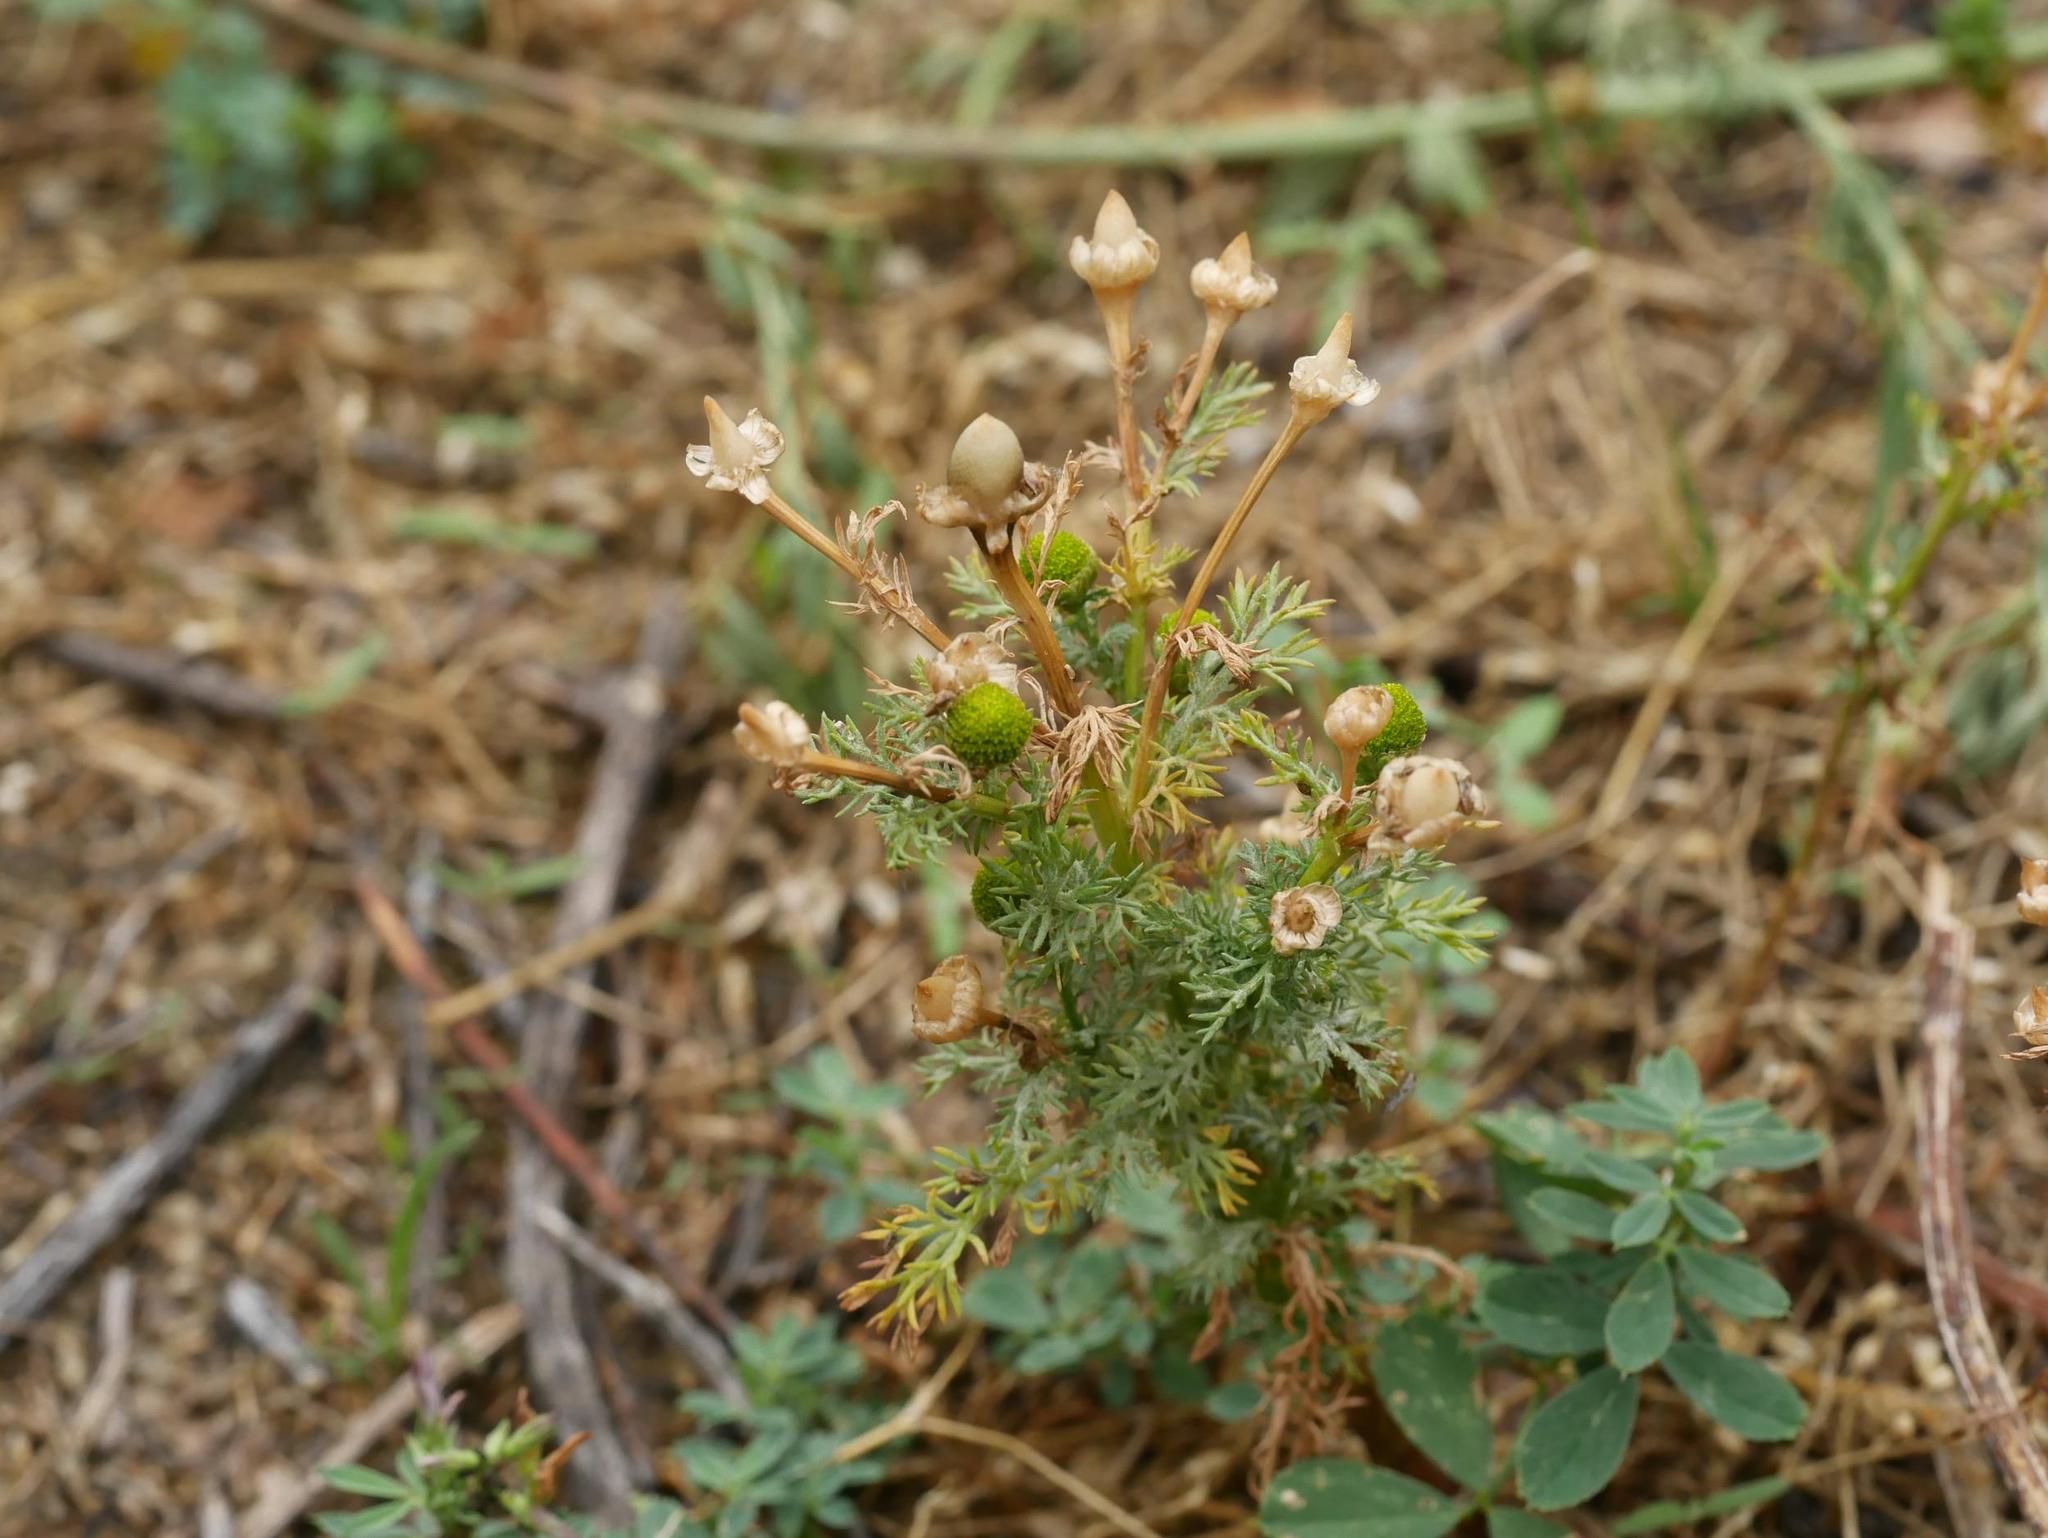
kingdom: Plantae
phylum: Tracheophyta
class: Magnoliopsida
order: Asterales
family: Asteraceae
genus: Matricaria
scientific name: Matricaria discoidea
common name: Disc mayweed
